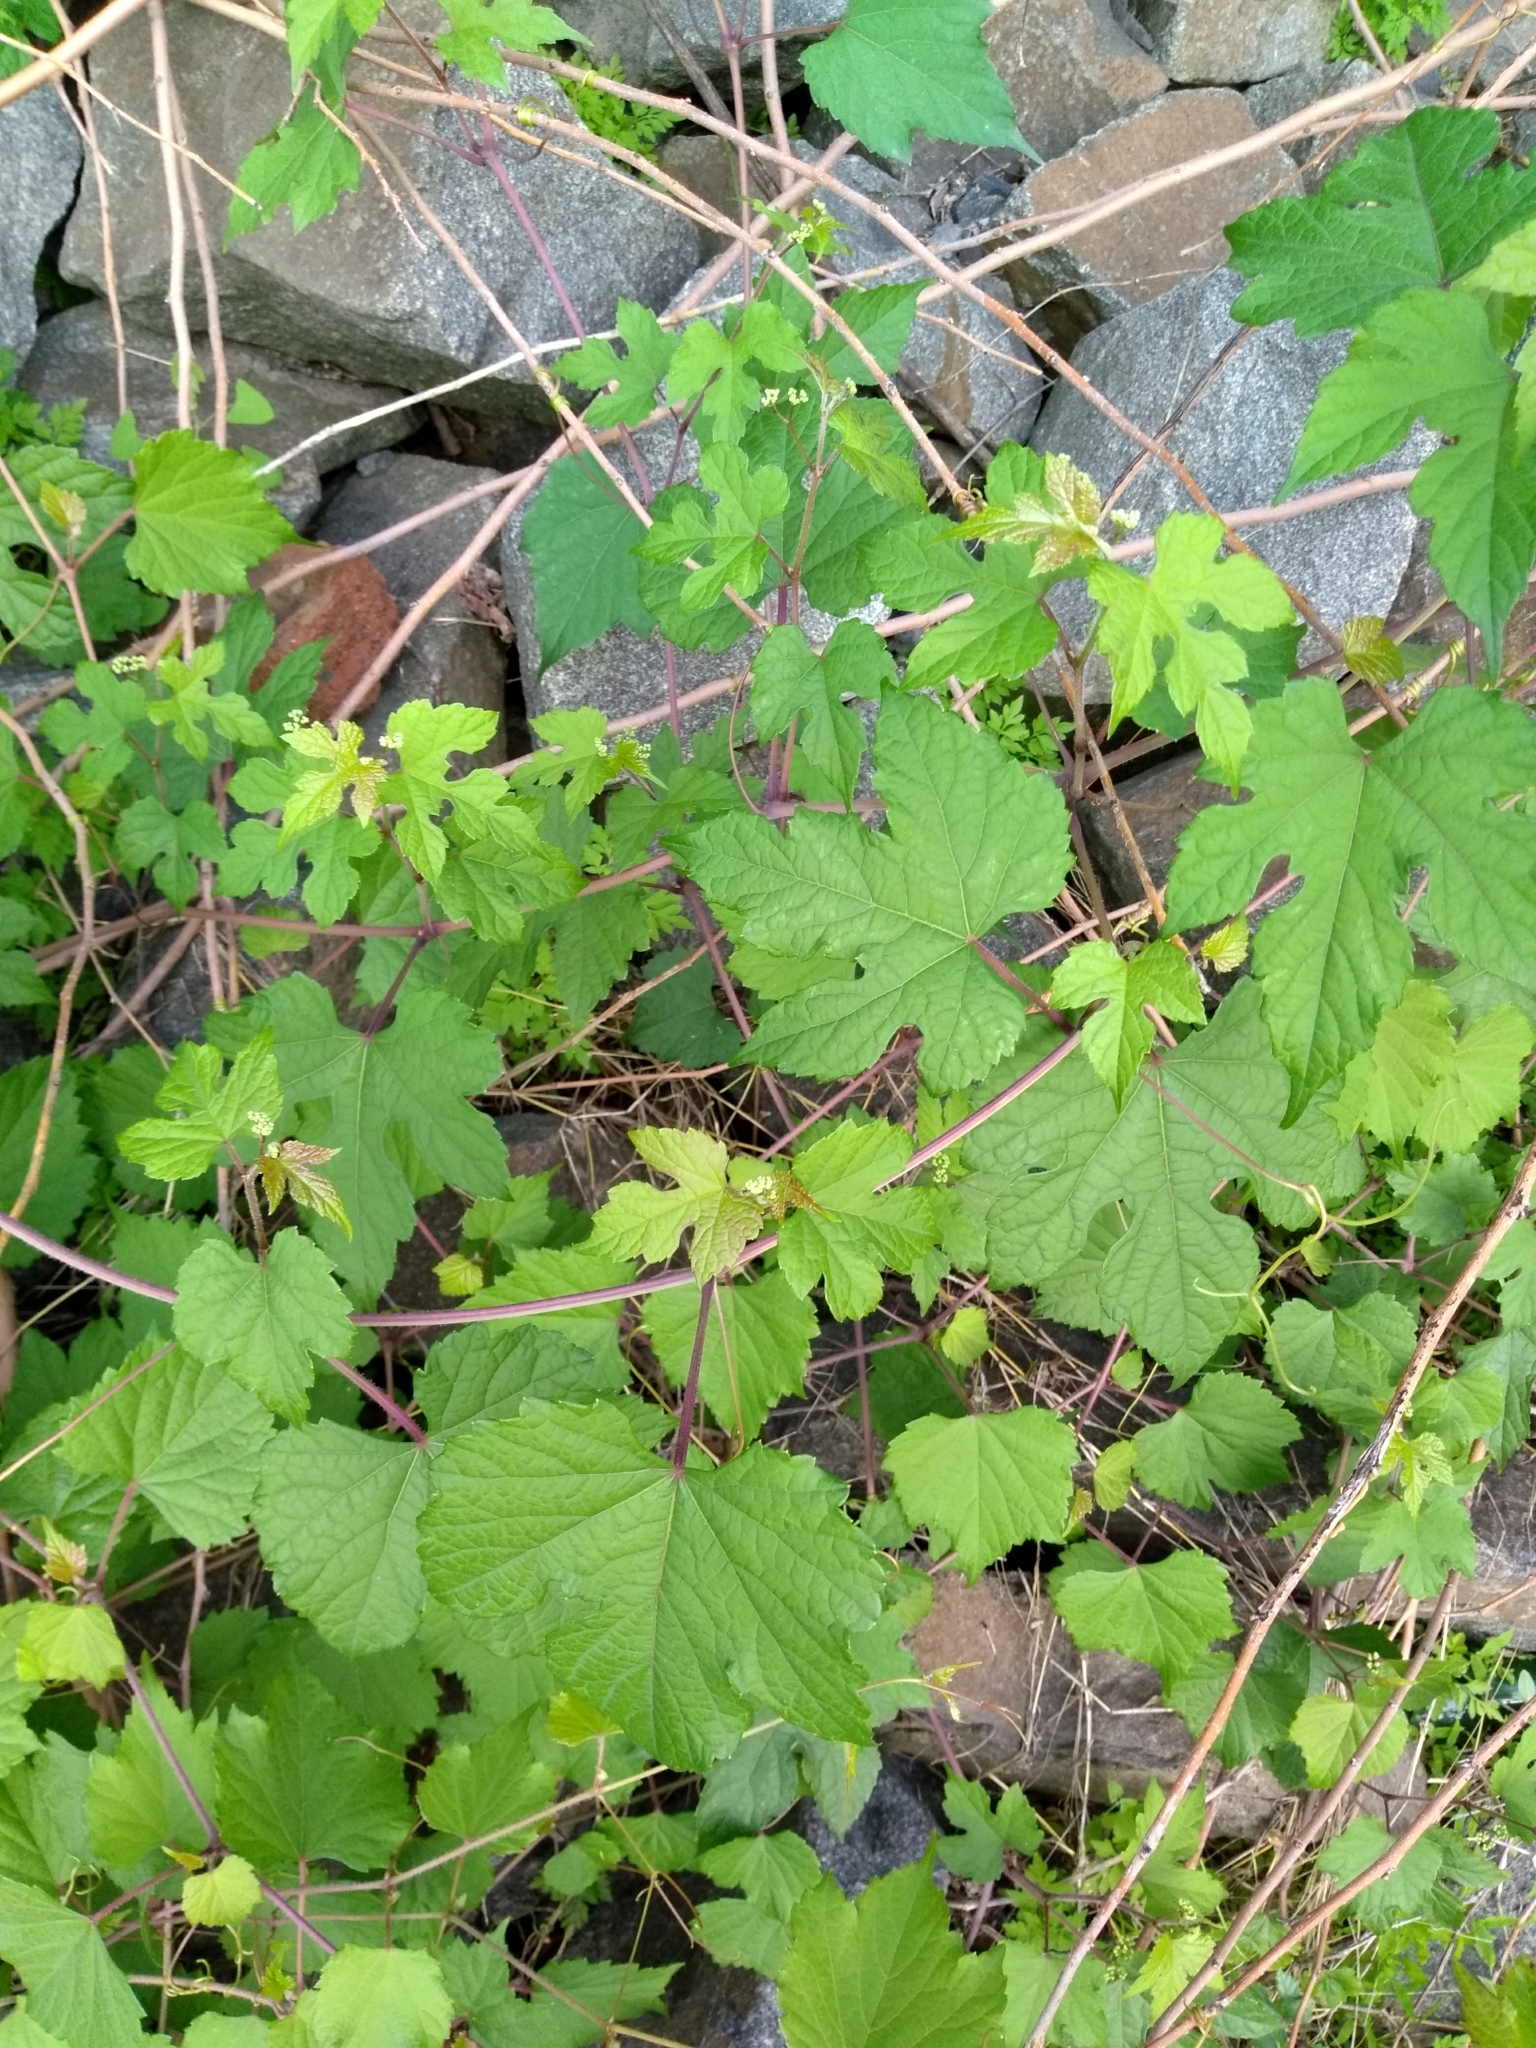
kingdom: Plantae
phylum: Tracheophyta
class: Magnoliopsida
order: Vitales
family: Vitaceae
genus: Ampelopsis
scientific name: Ampelopsis glandulosa
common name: Amur peppervine
